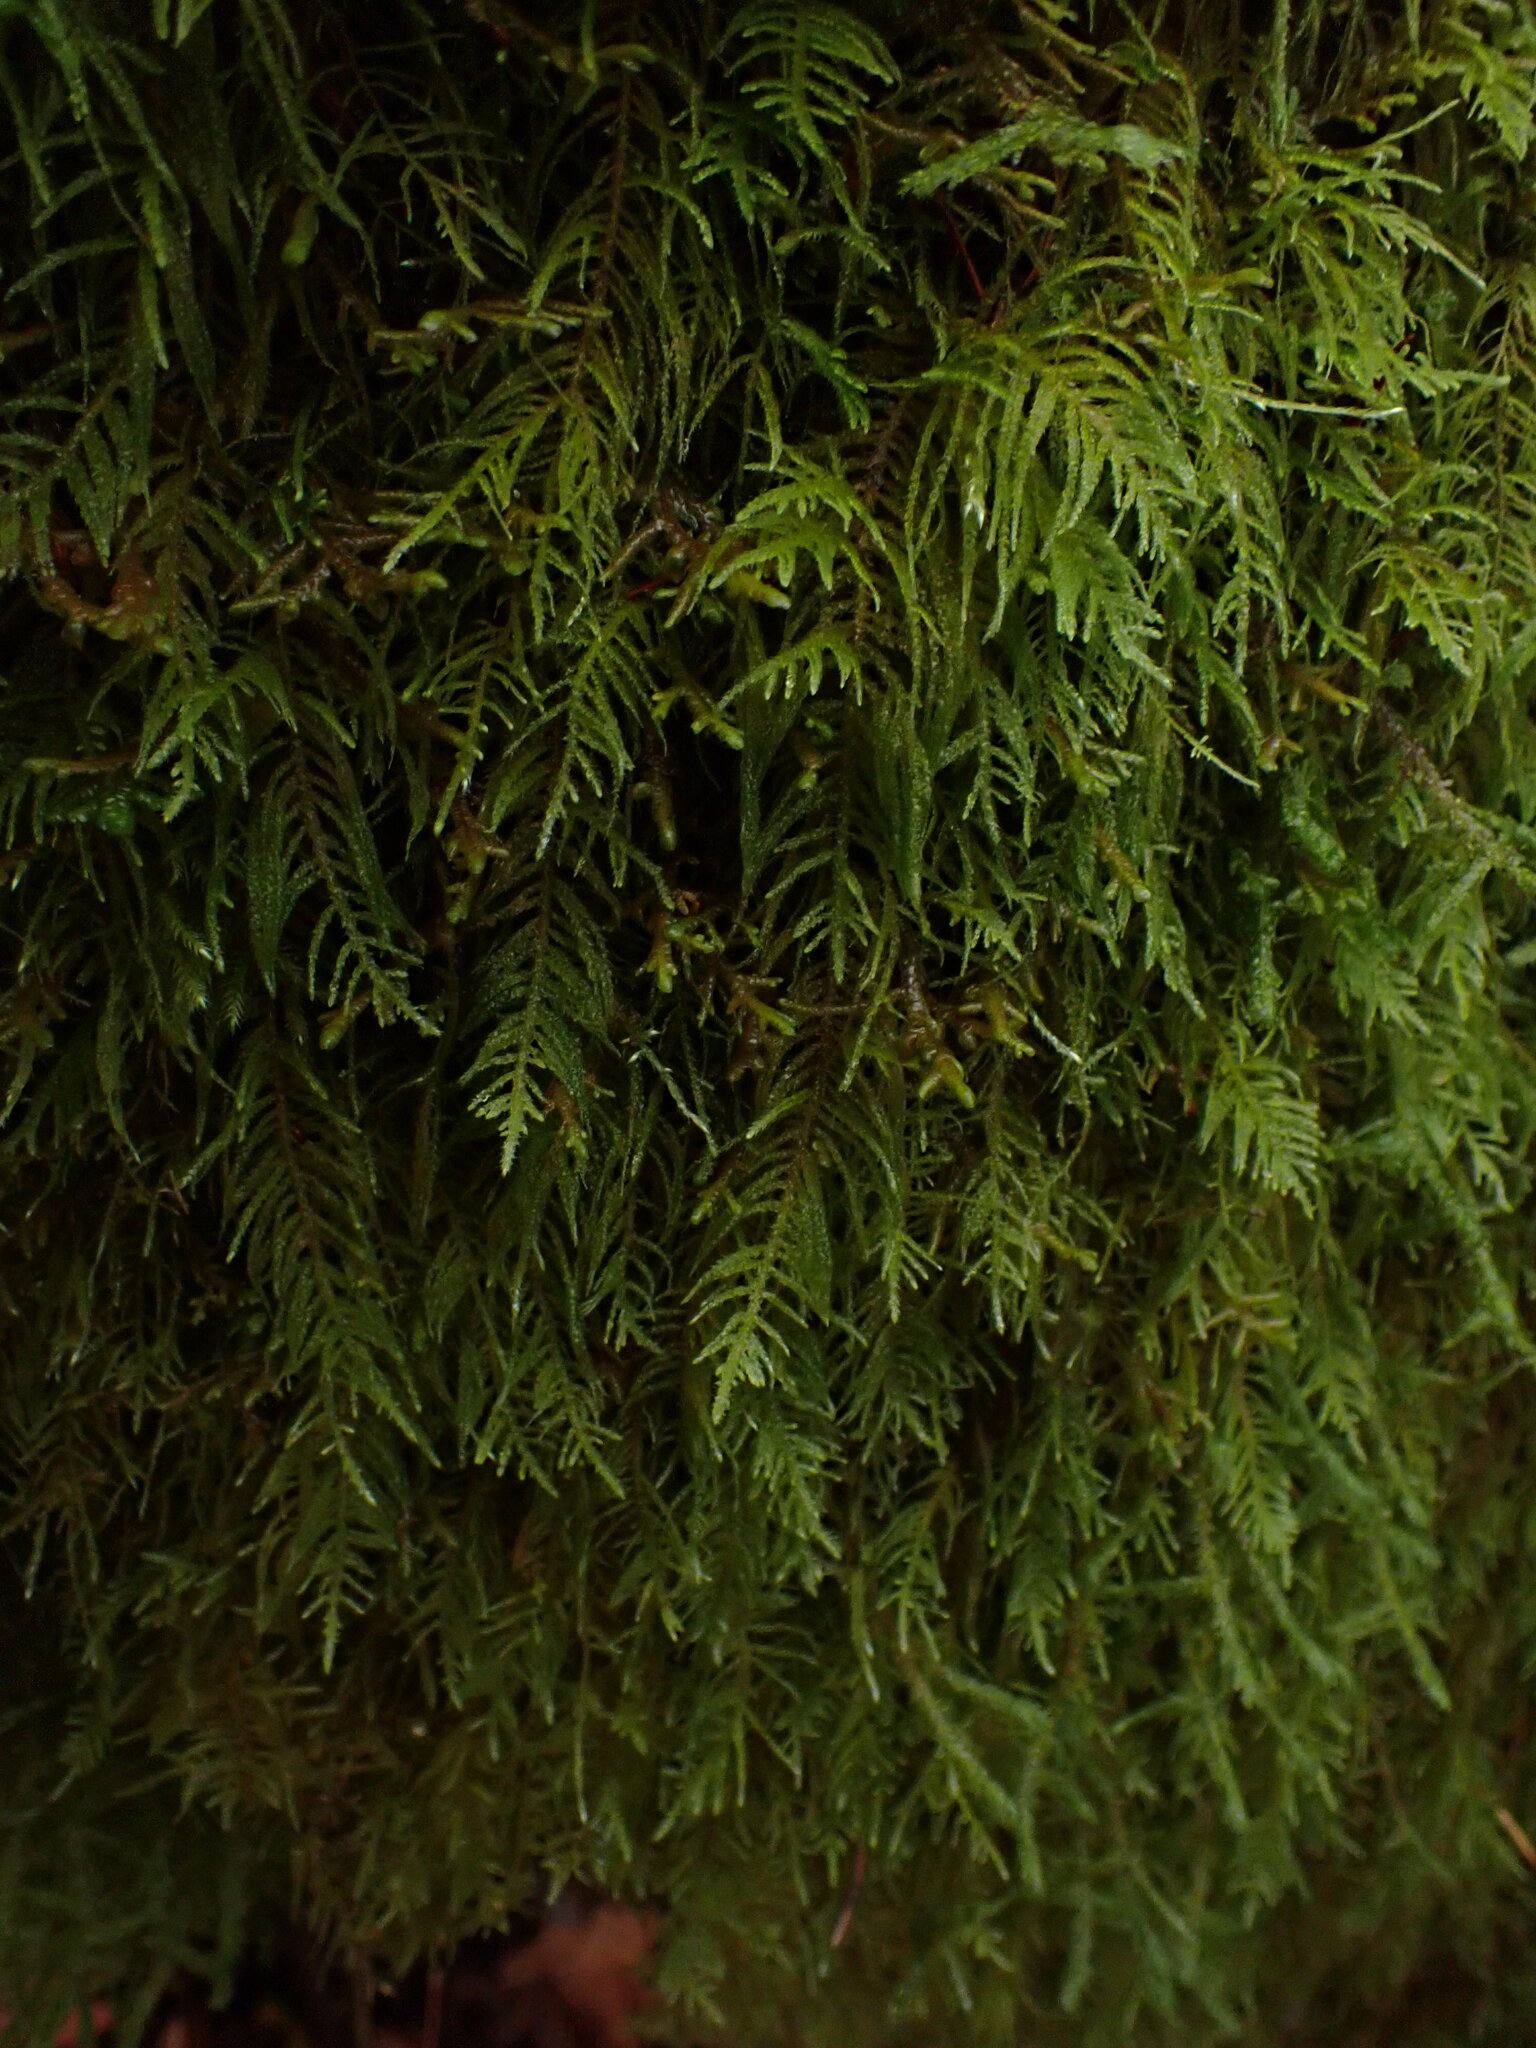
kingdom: Plantae
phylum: Bryophyta
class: Bryopsida
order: Hypnales
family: Brachytheciaceae
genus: Kindbergia
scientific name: Kindbergia oregana
